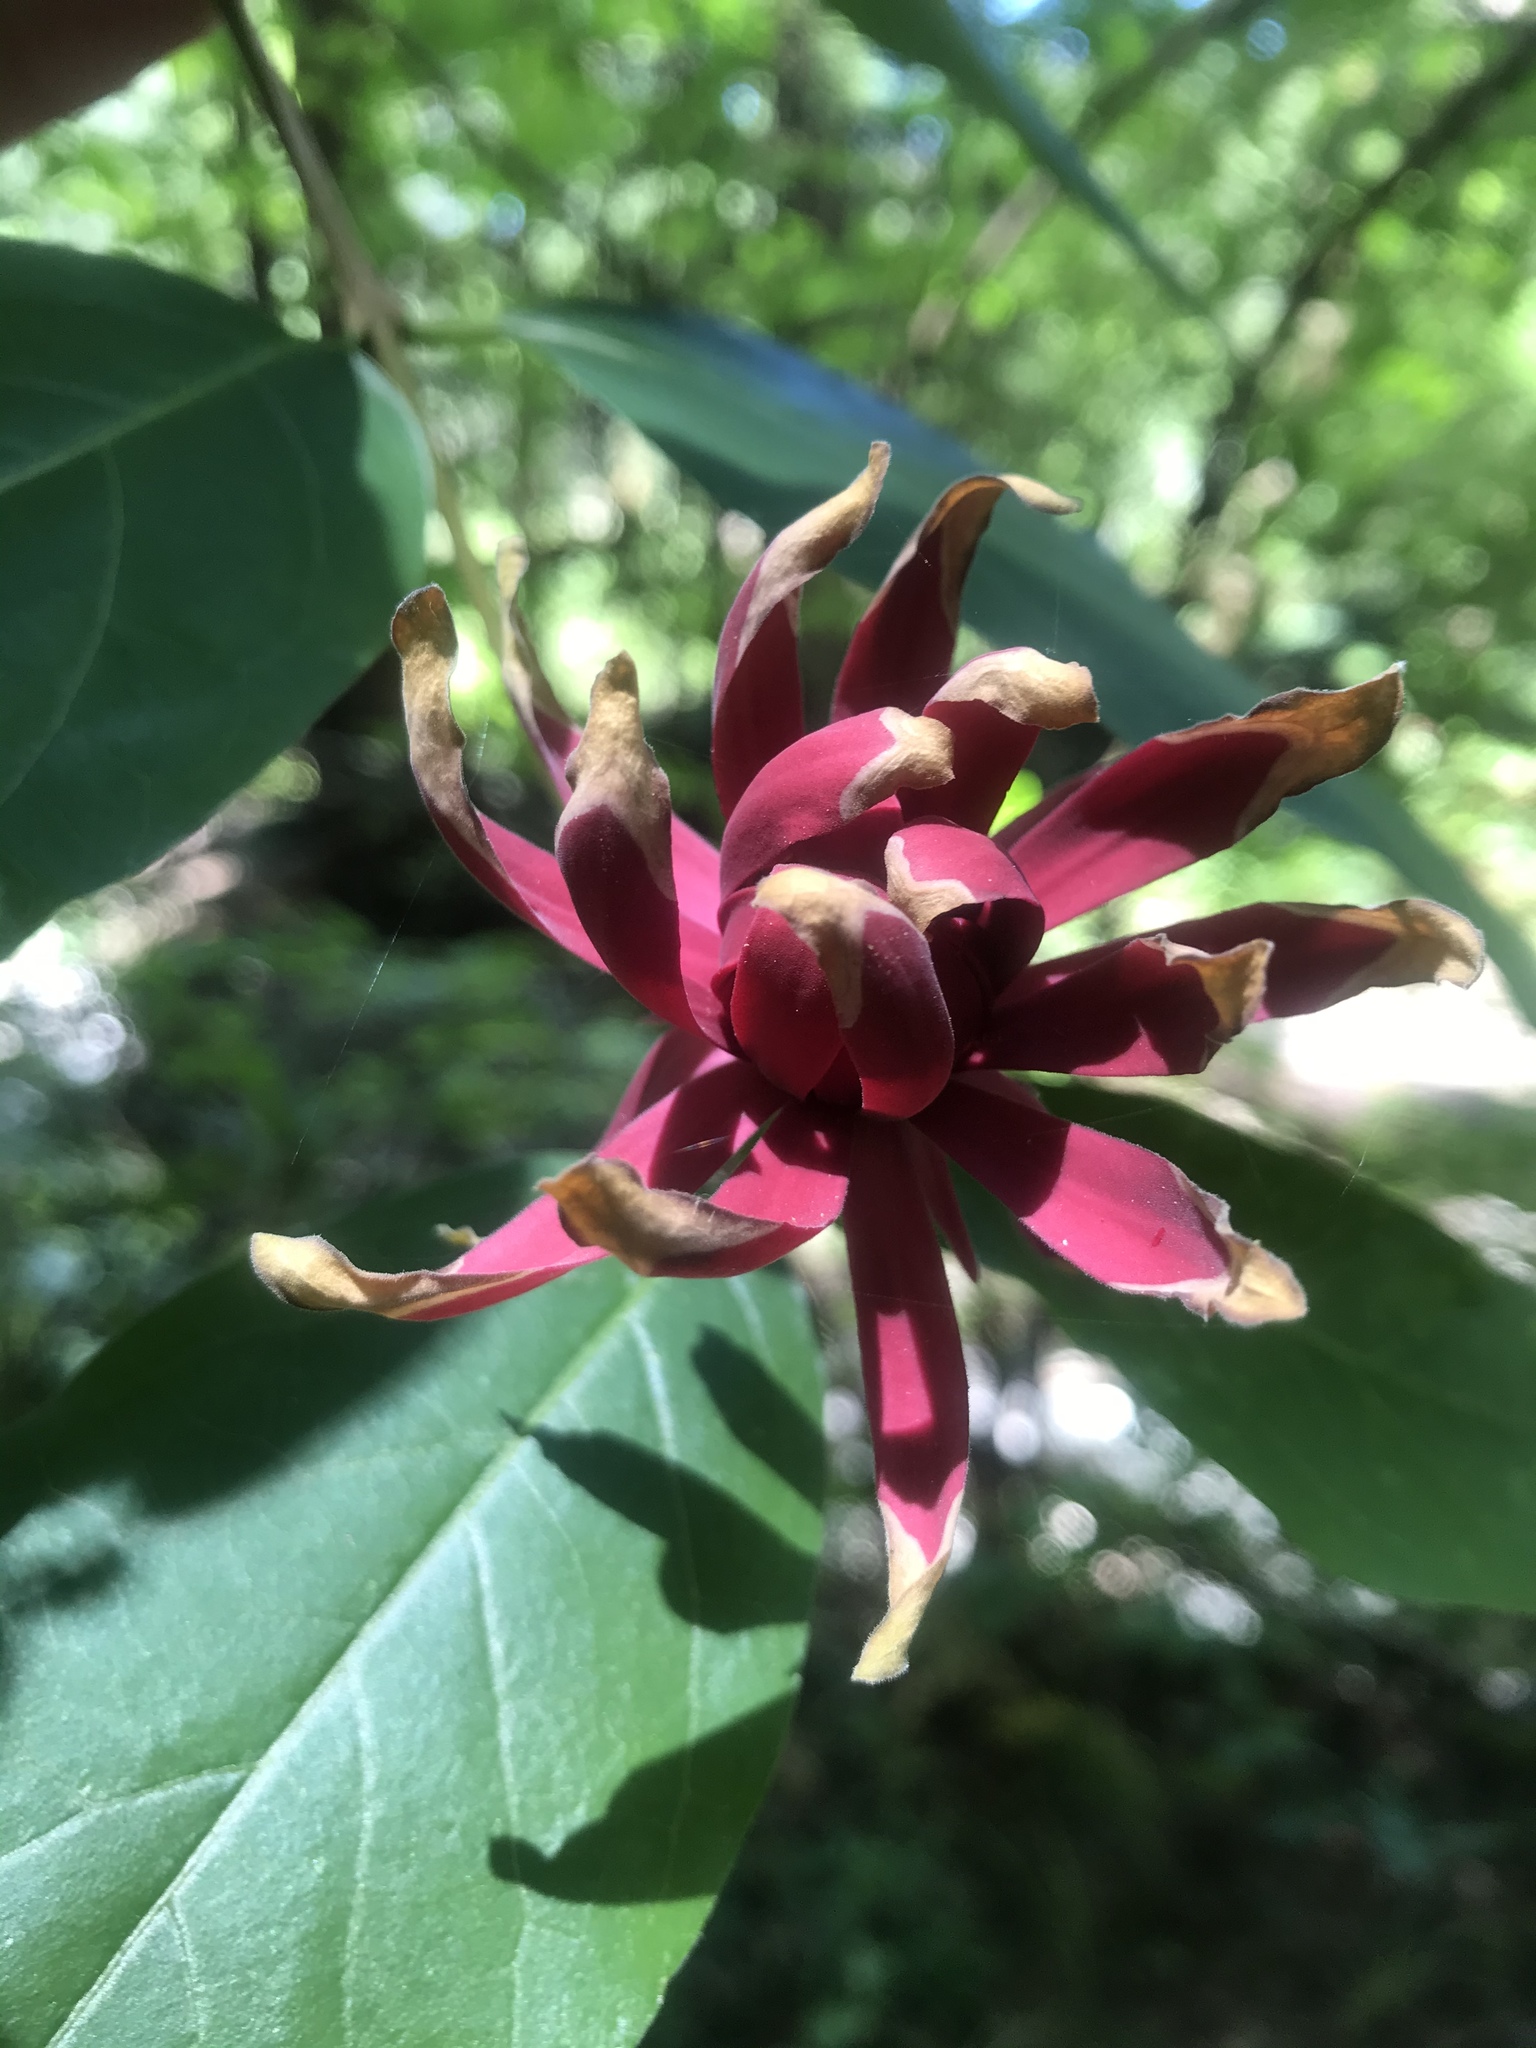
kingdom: Plantae
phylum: Tracheophyta
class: Magnoliopsida
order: Laurales
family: Calycanthaceae
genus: Calycanthus
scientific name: Calycanthus occidentalis
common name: California spicebush
